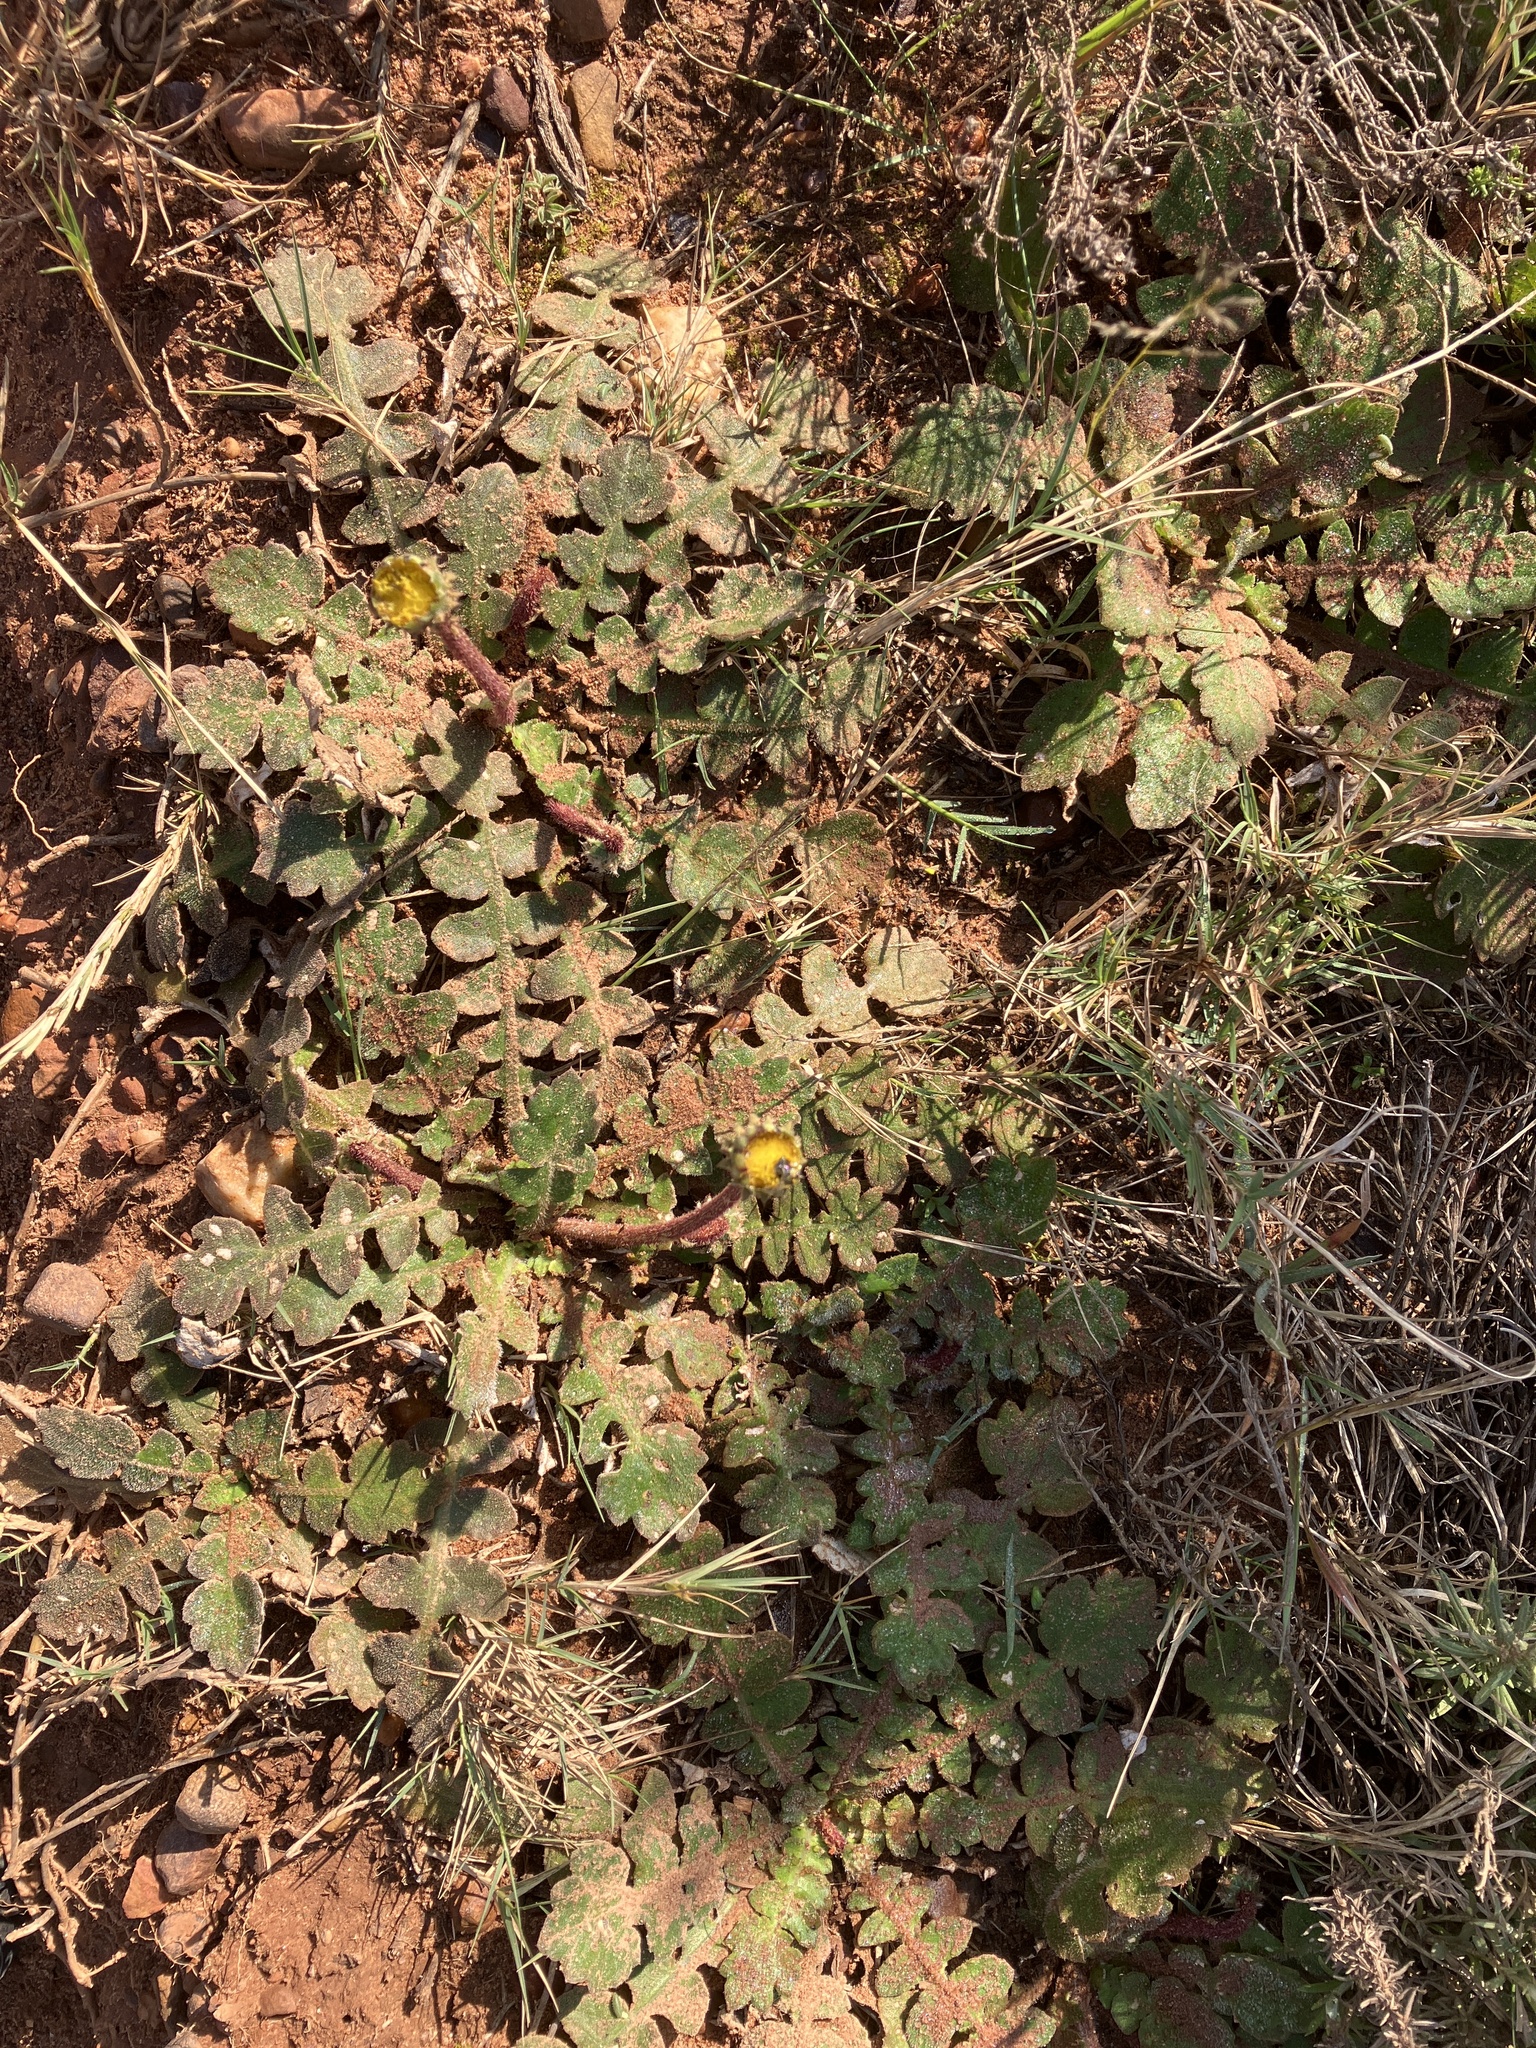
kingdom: Plantae
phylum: Tracheophyta
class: Magnoliopsida
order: Asterales
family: Asteraceae
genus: Arctotheca
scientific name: Arctotheca prostrata
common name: Capeweed
